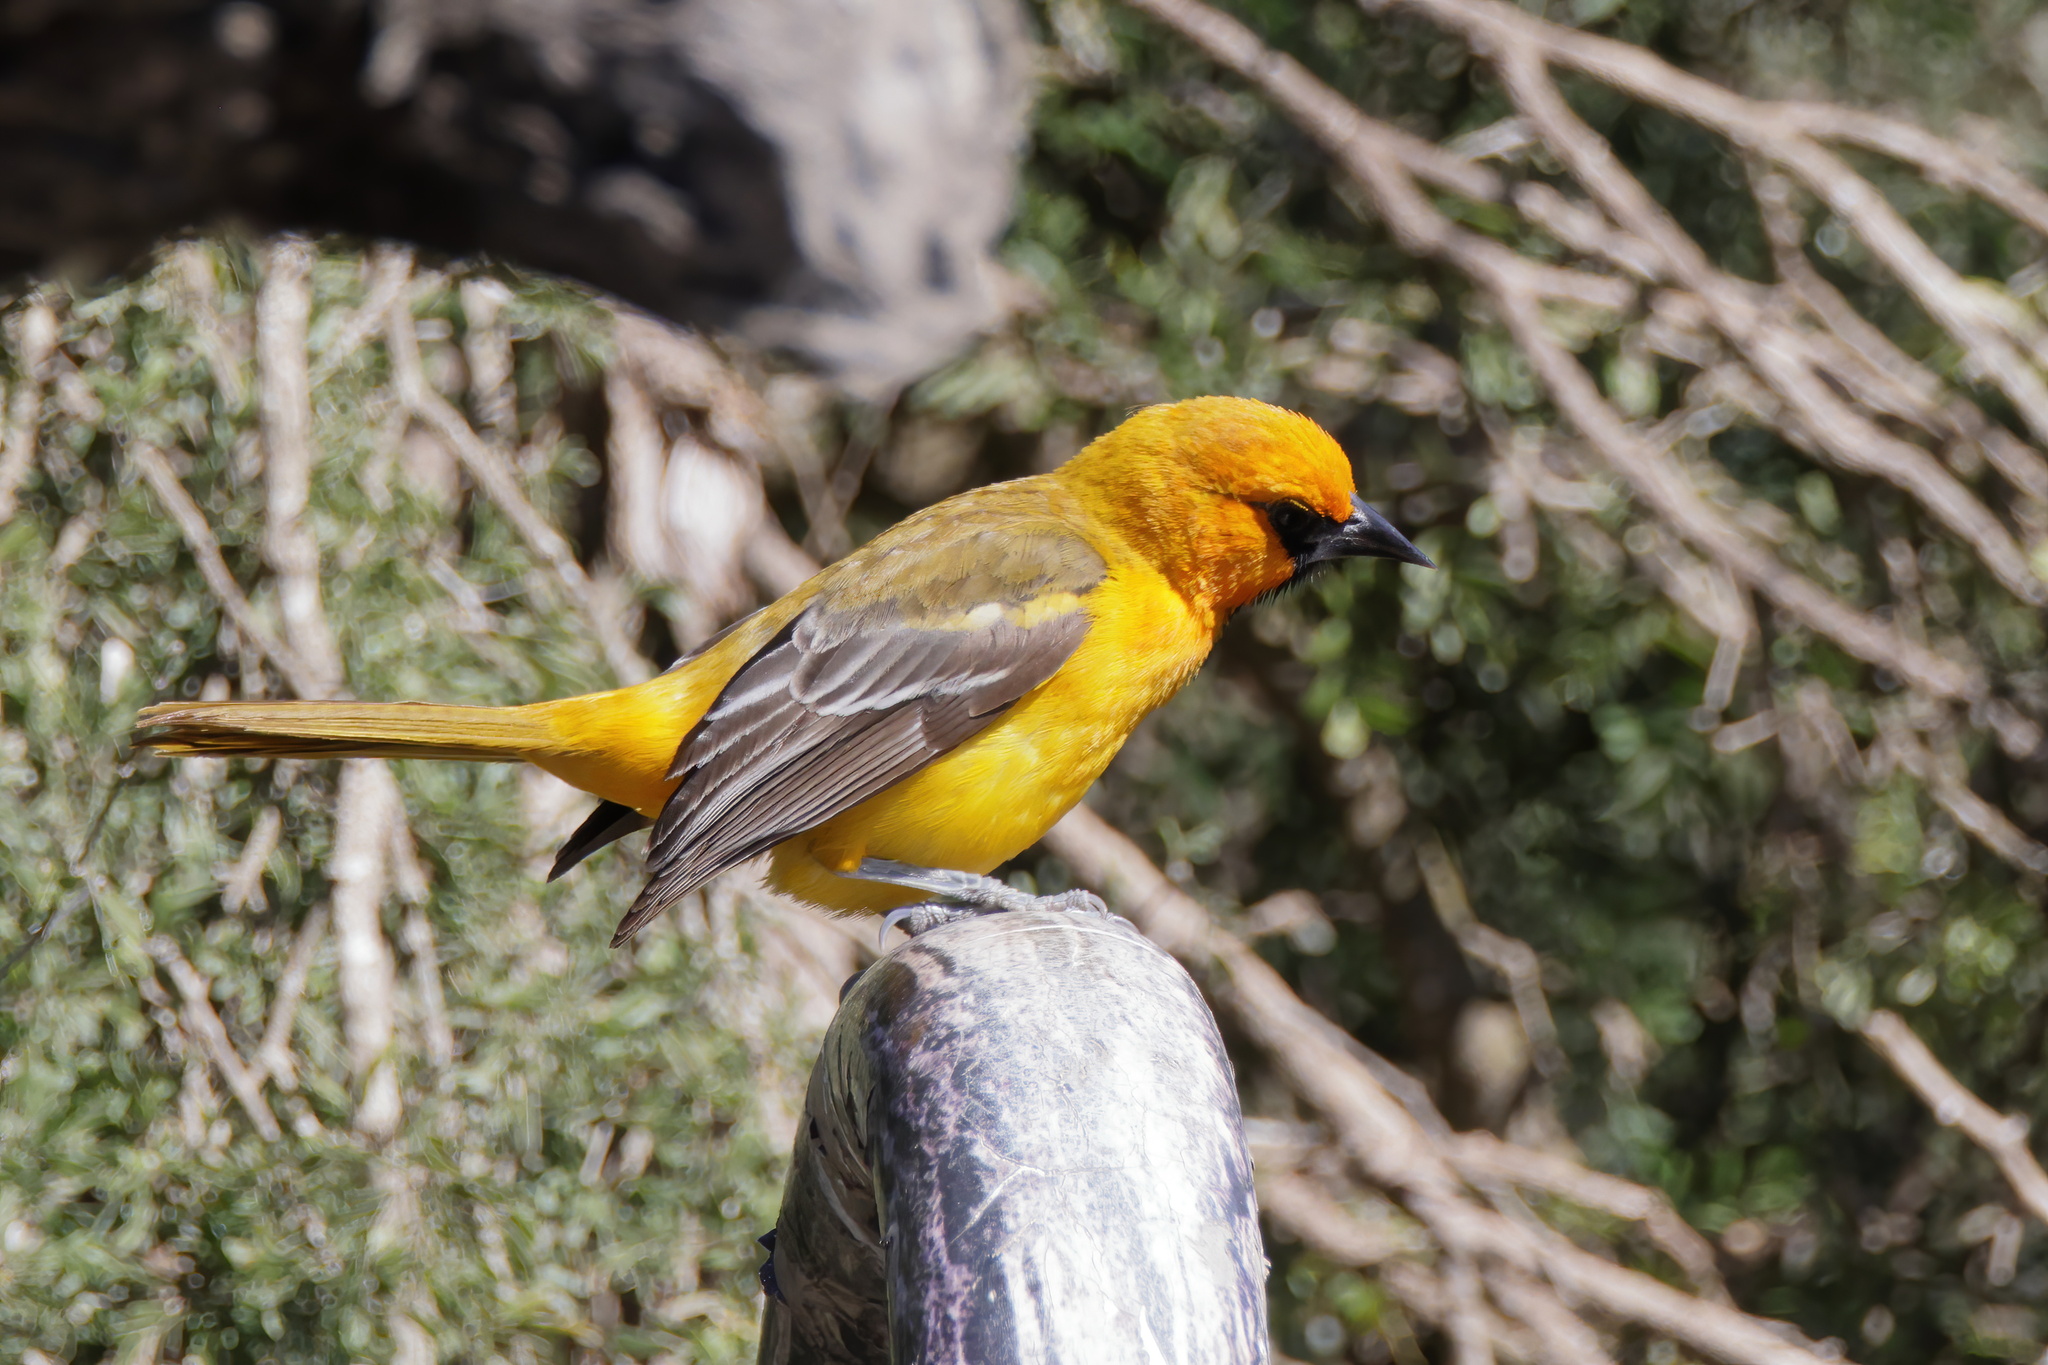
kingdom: Animalia
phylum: Chordata
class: Aves
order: Passeriformes
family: Icteridae
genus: Icterus
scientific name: Icterus gularis
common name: Altamira oriole
